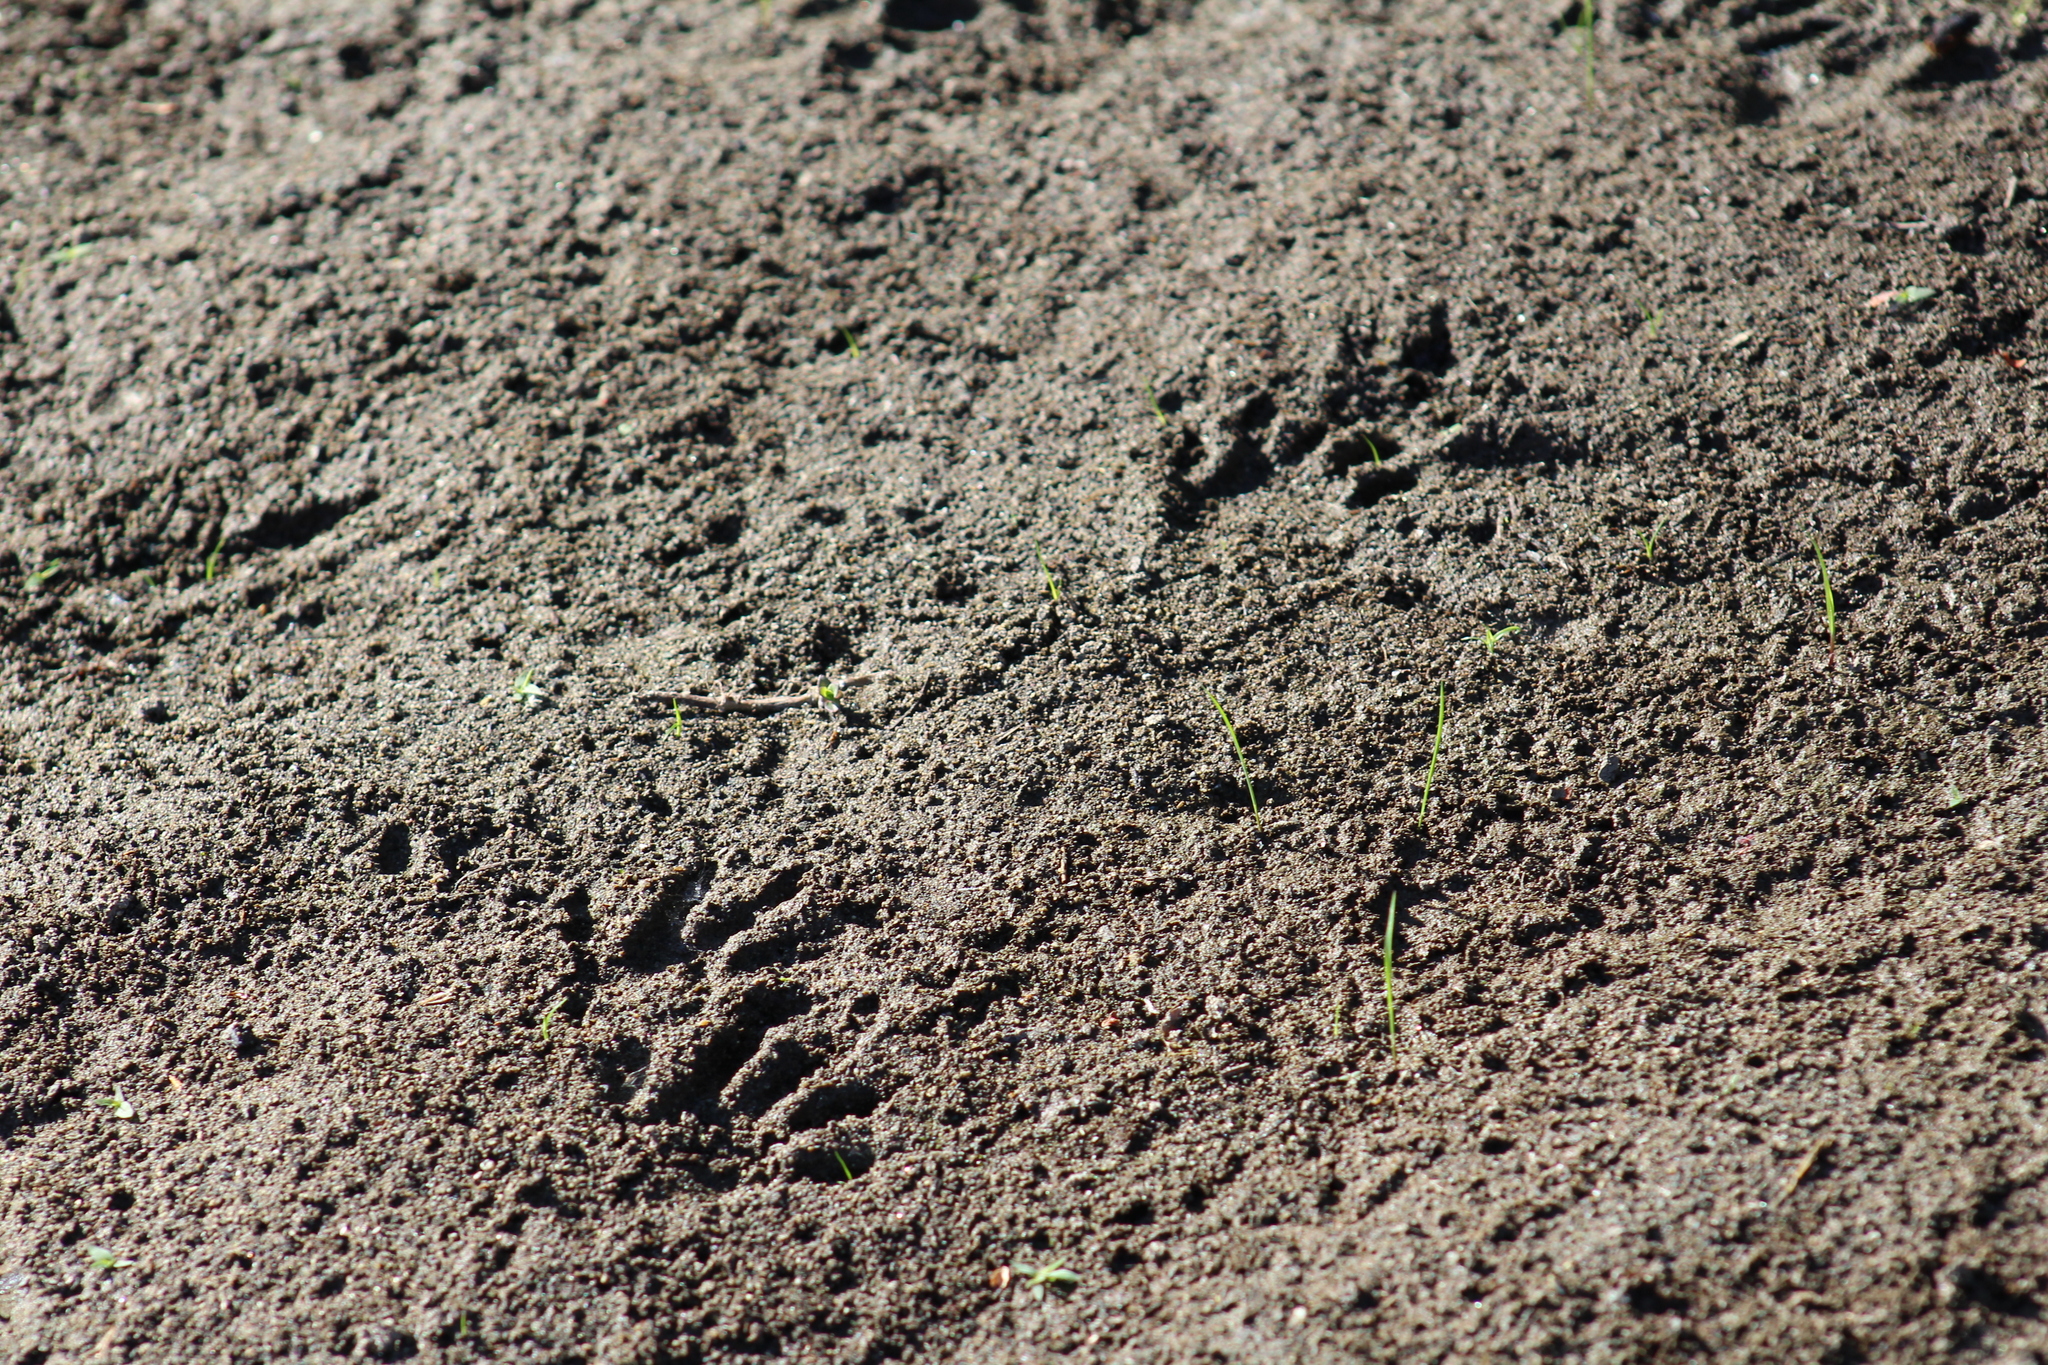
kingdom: Animalia
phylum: Chordata
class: Mammalia
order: Carnivora
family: Procyonidae
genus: Procyon
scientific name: Procyon lotor
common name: Raccoon
